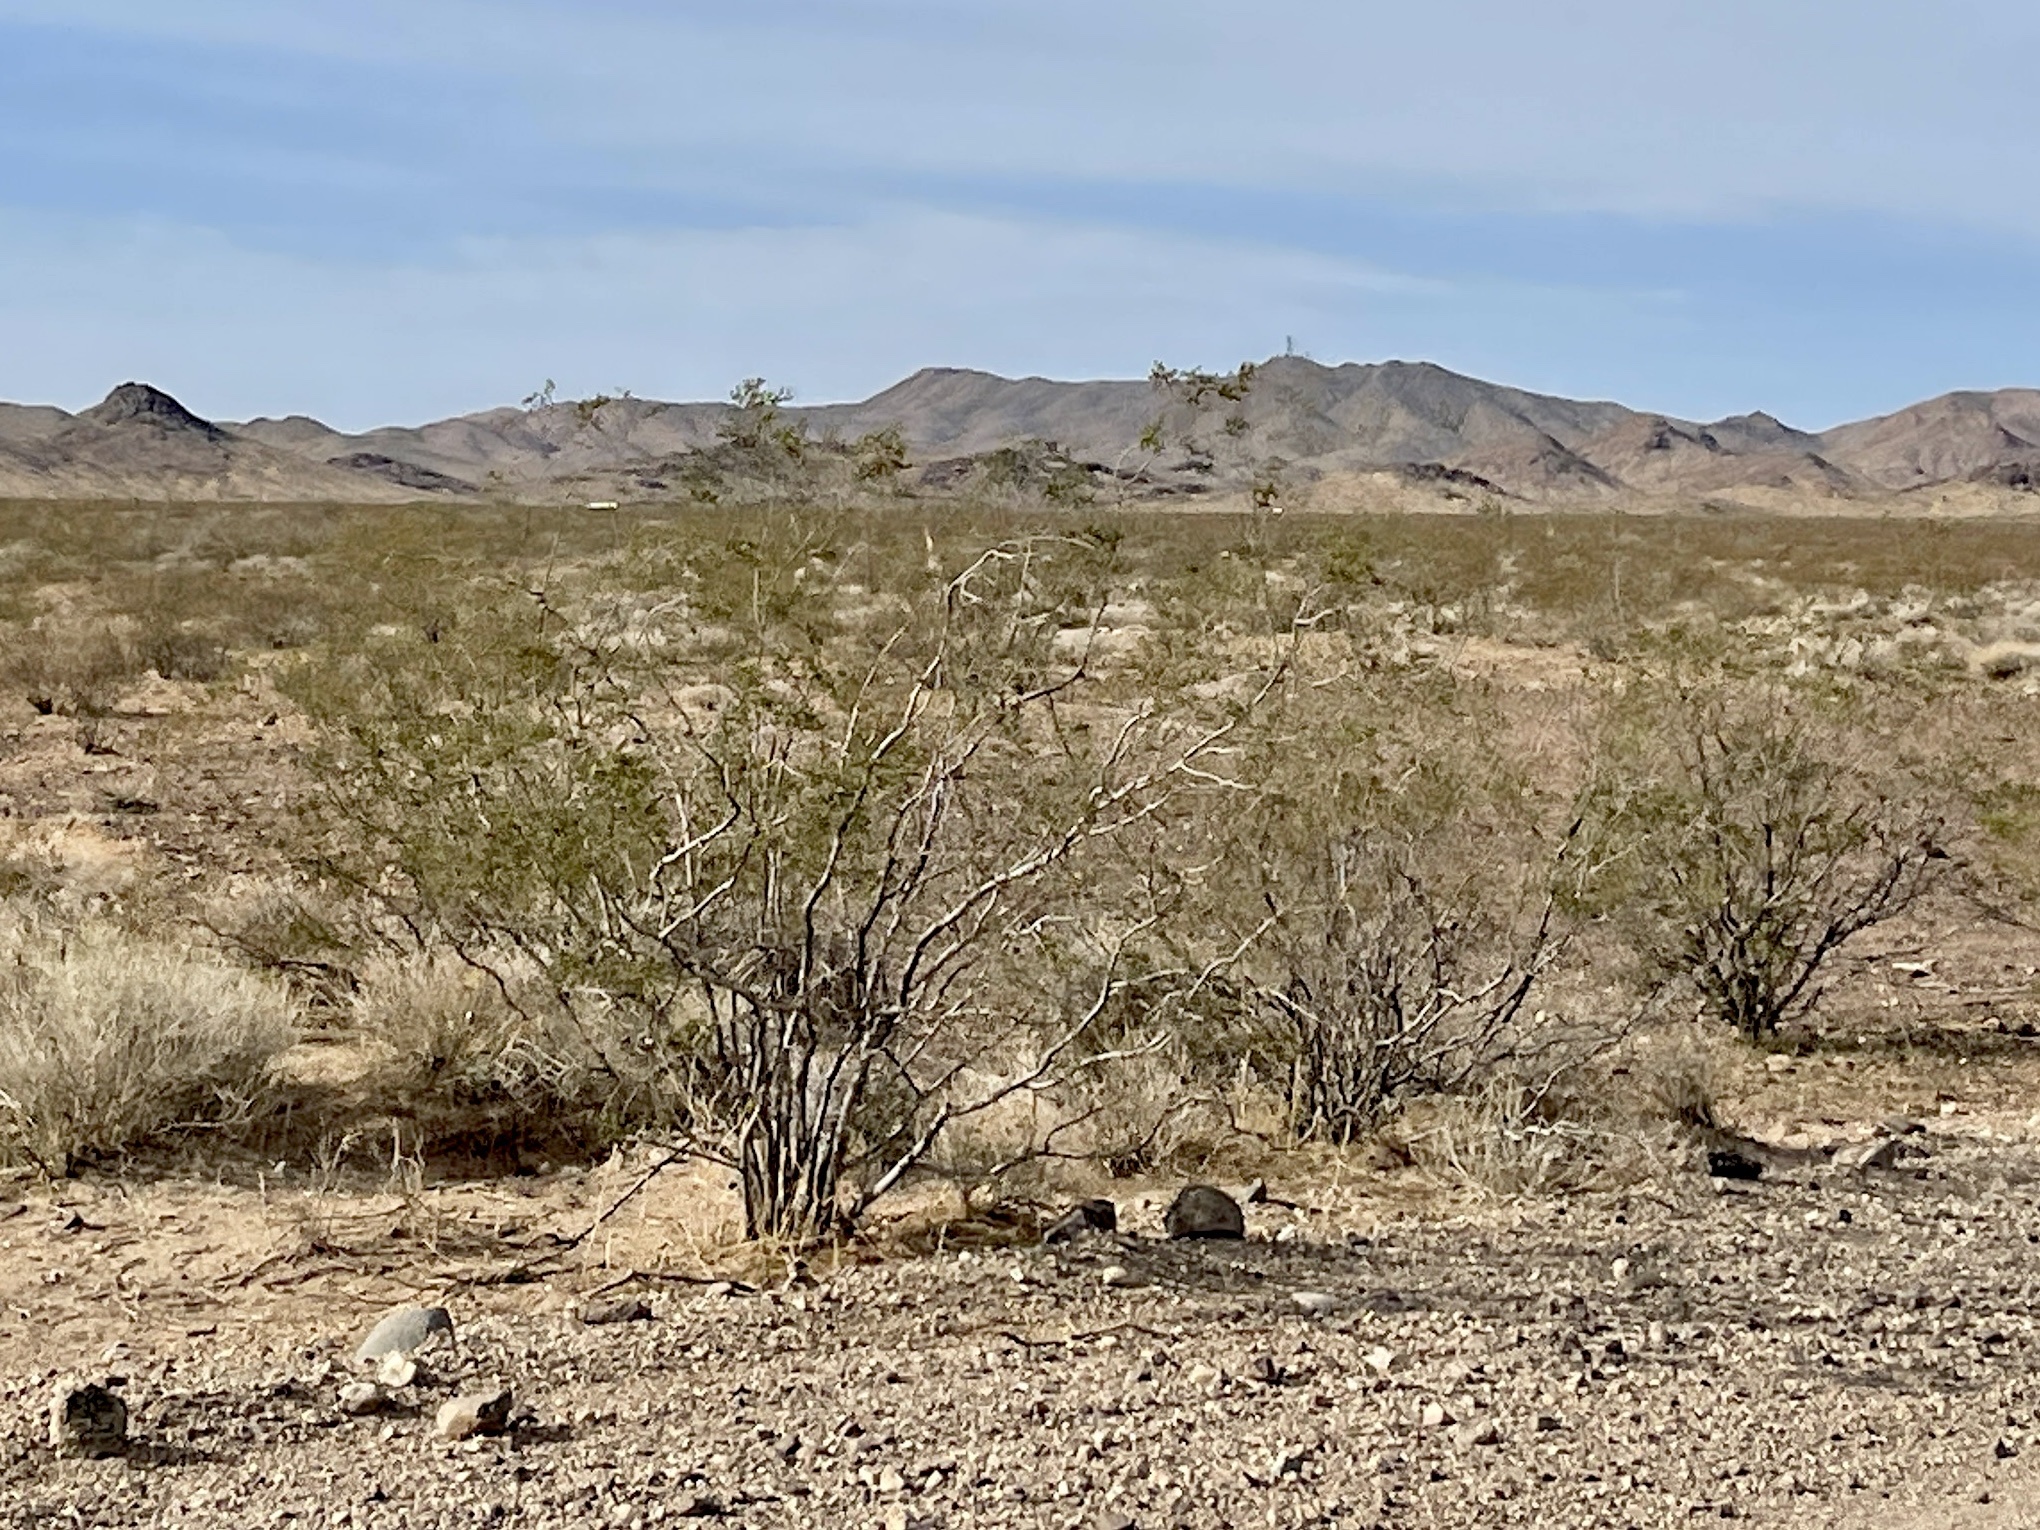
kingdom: Plantae
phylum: Tracheophyta
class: Magnoliopsida
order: Zygophyllales
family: Zygophyllaceae
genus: Larrea
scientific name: Larrea tridentata
